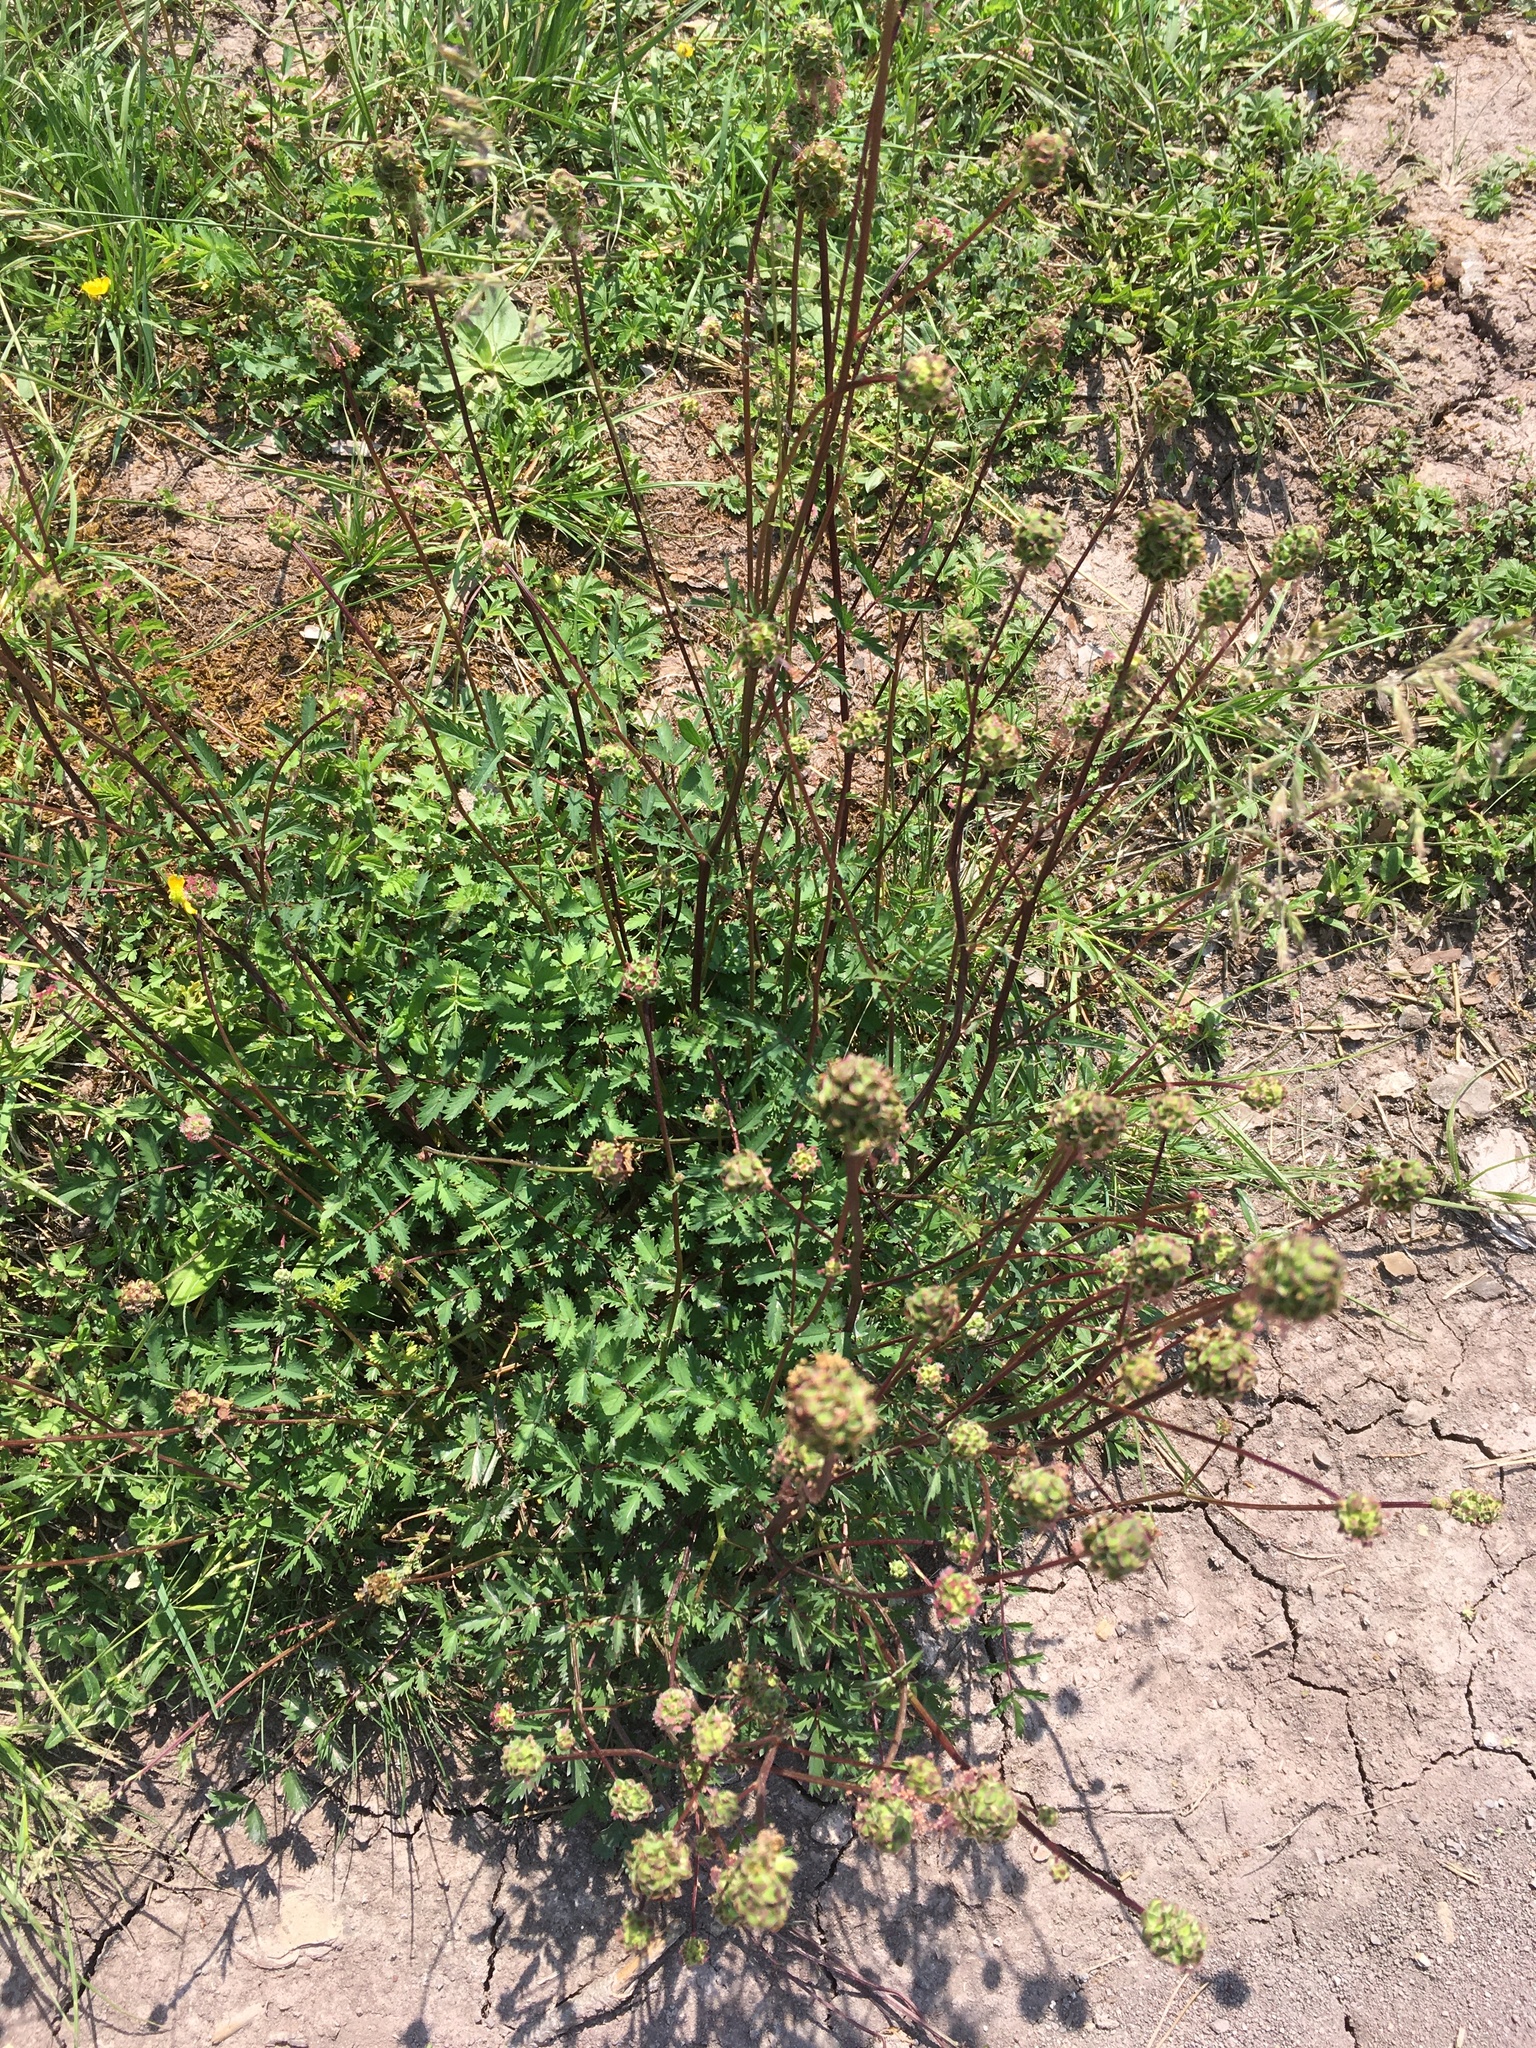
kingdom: Plantae
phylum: Tracheophyta
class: Magnoliopsida
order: Rosales
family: Rosaceae
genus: Poterium
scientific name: Poterium sanguisorba
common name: Salad burnet
